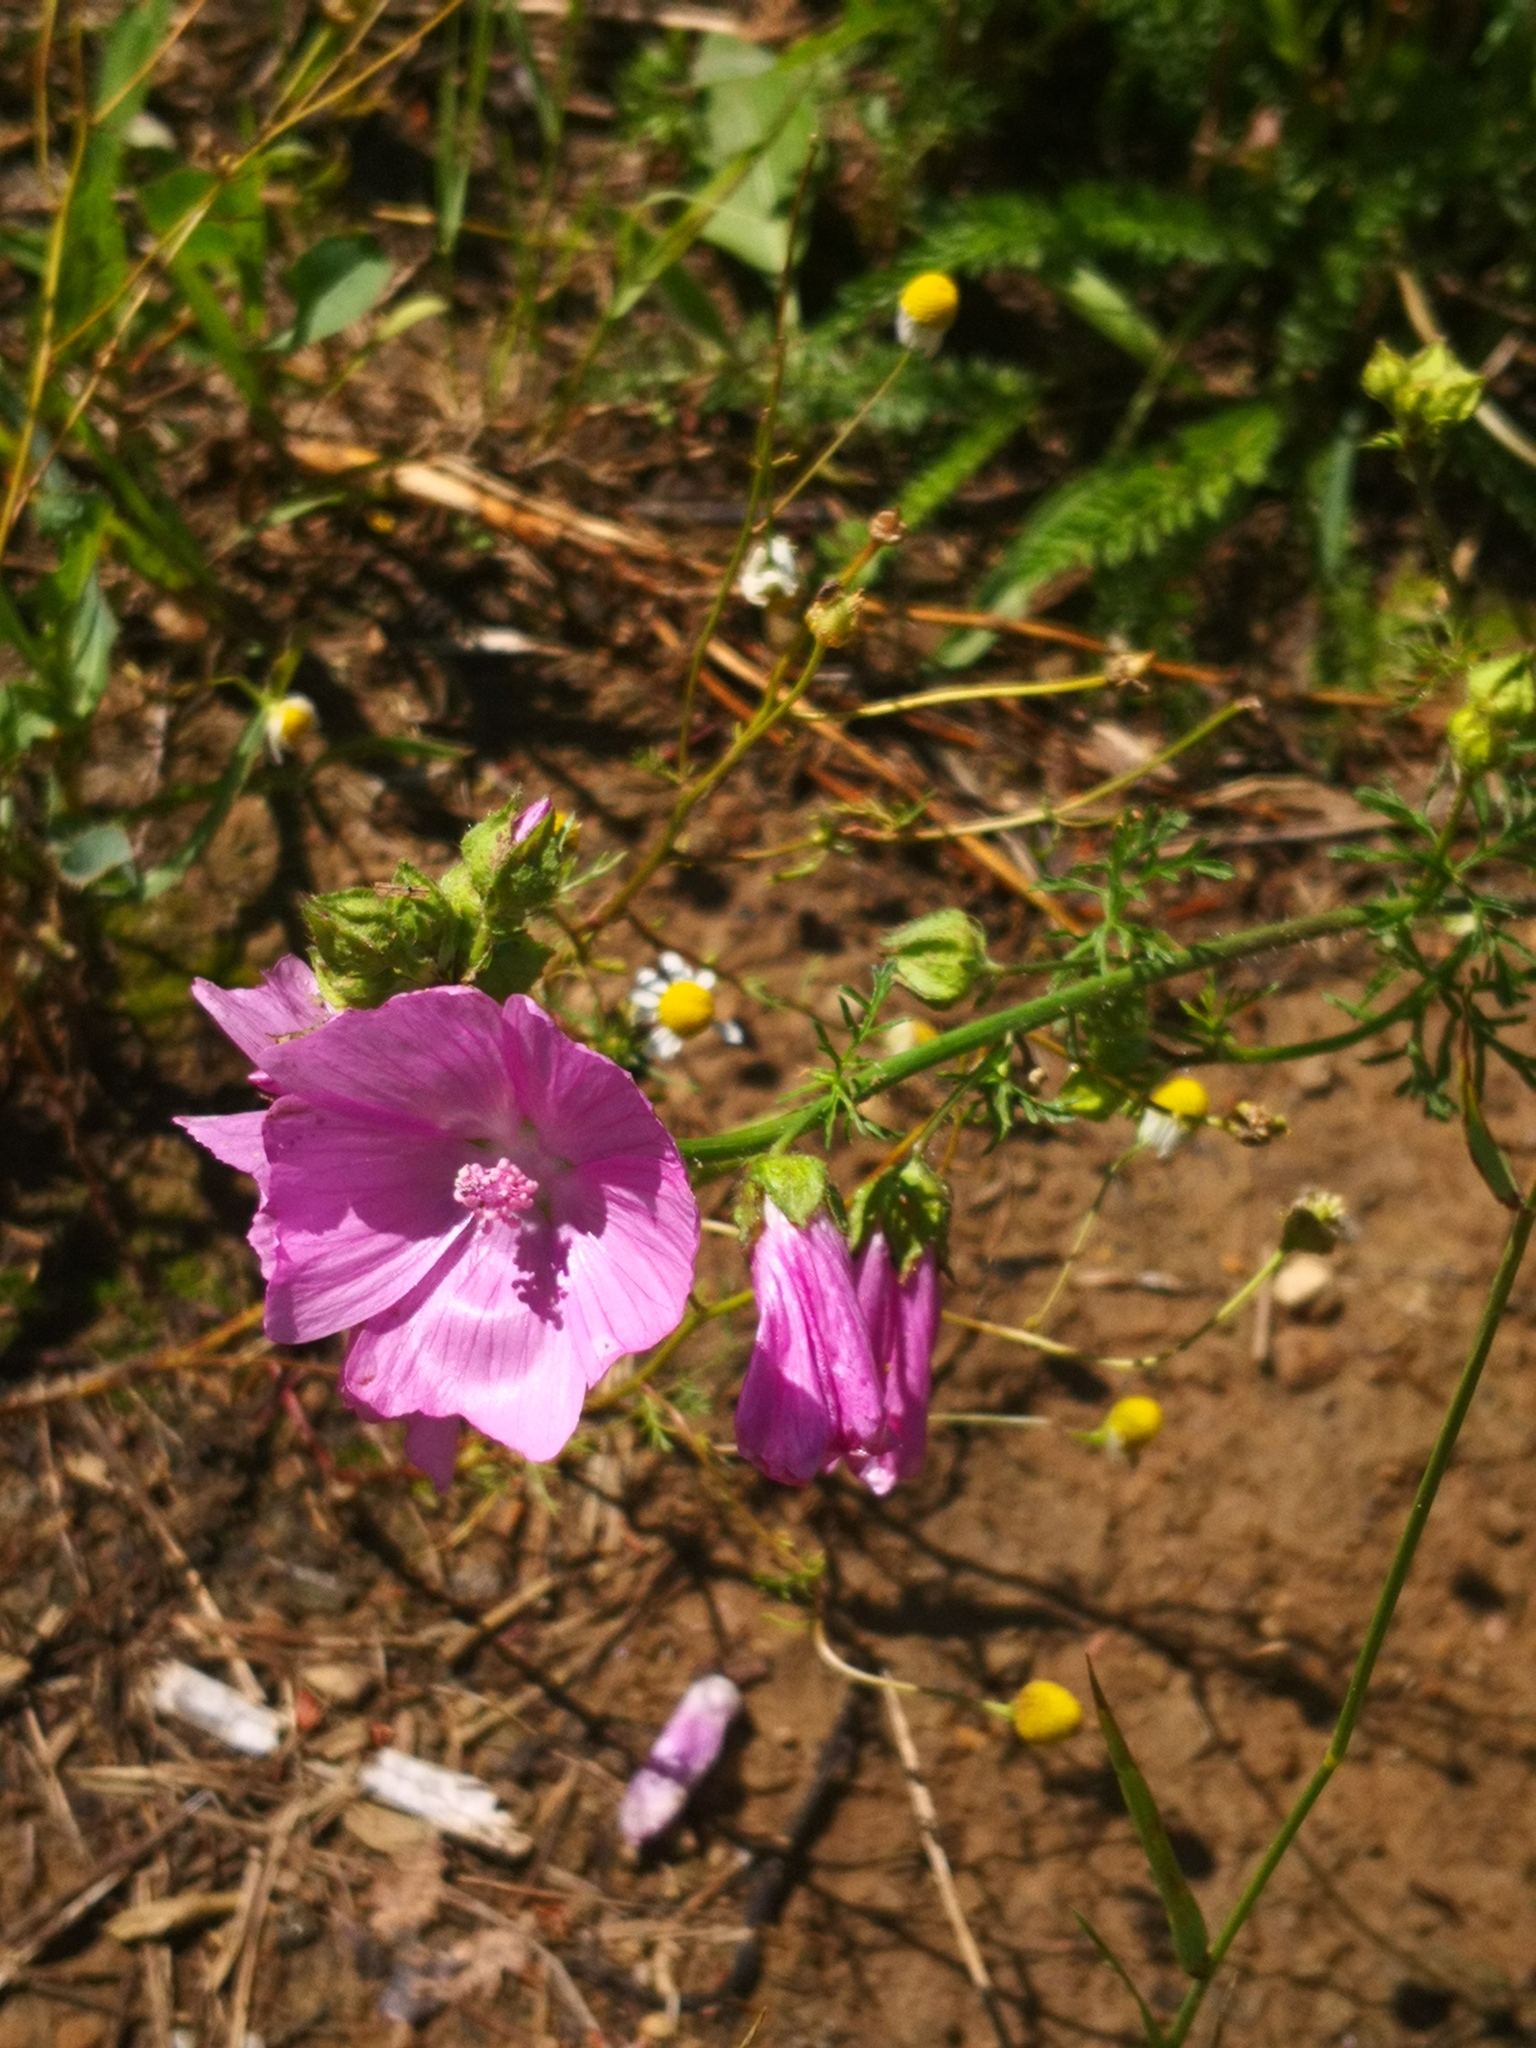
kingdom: Plantae
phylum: Tracheophyta
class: Magnoliopsida
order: Malvales
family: Malvaceae
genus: Malva
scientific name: Malva moschata
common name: Musk mallow
